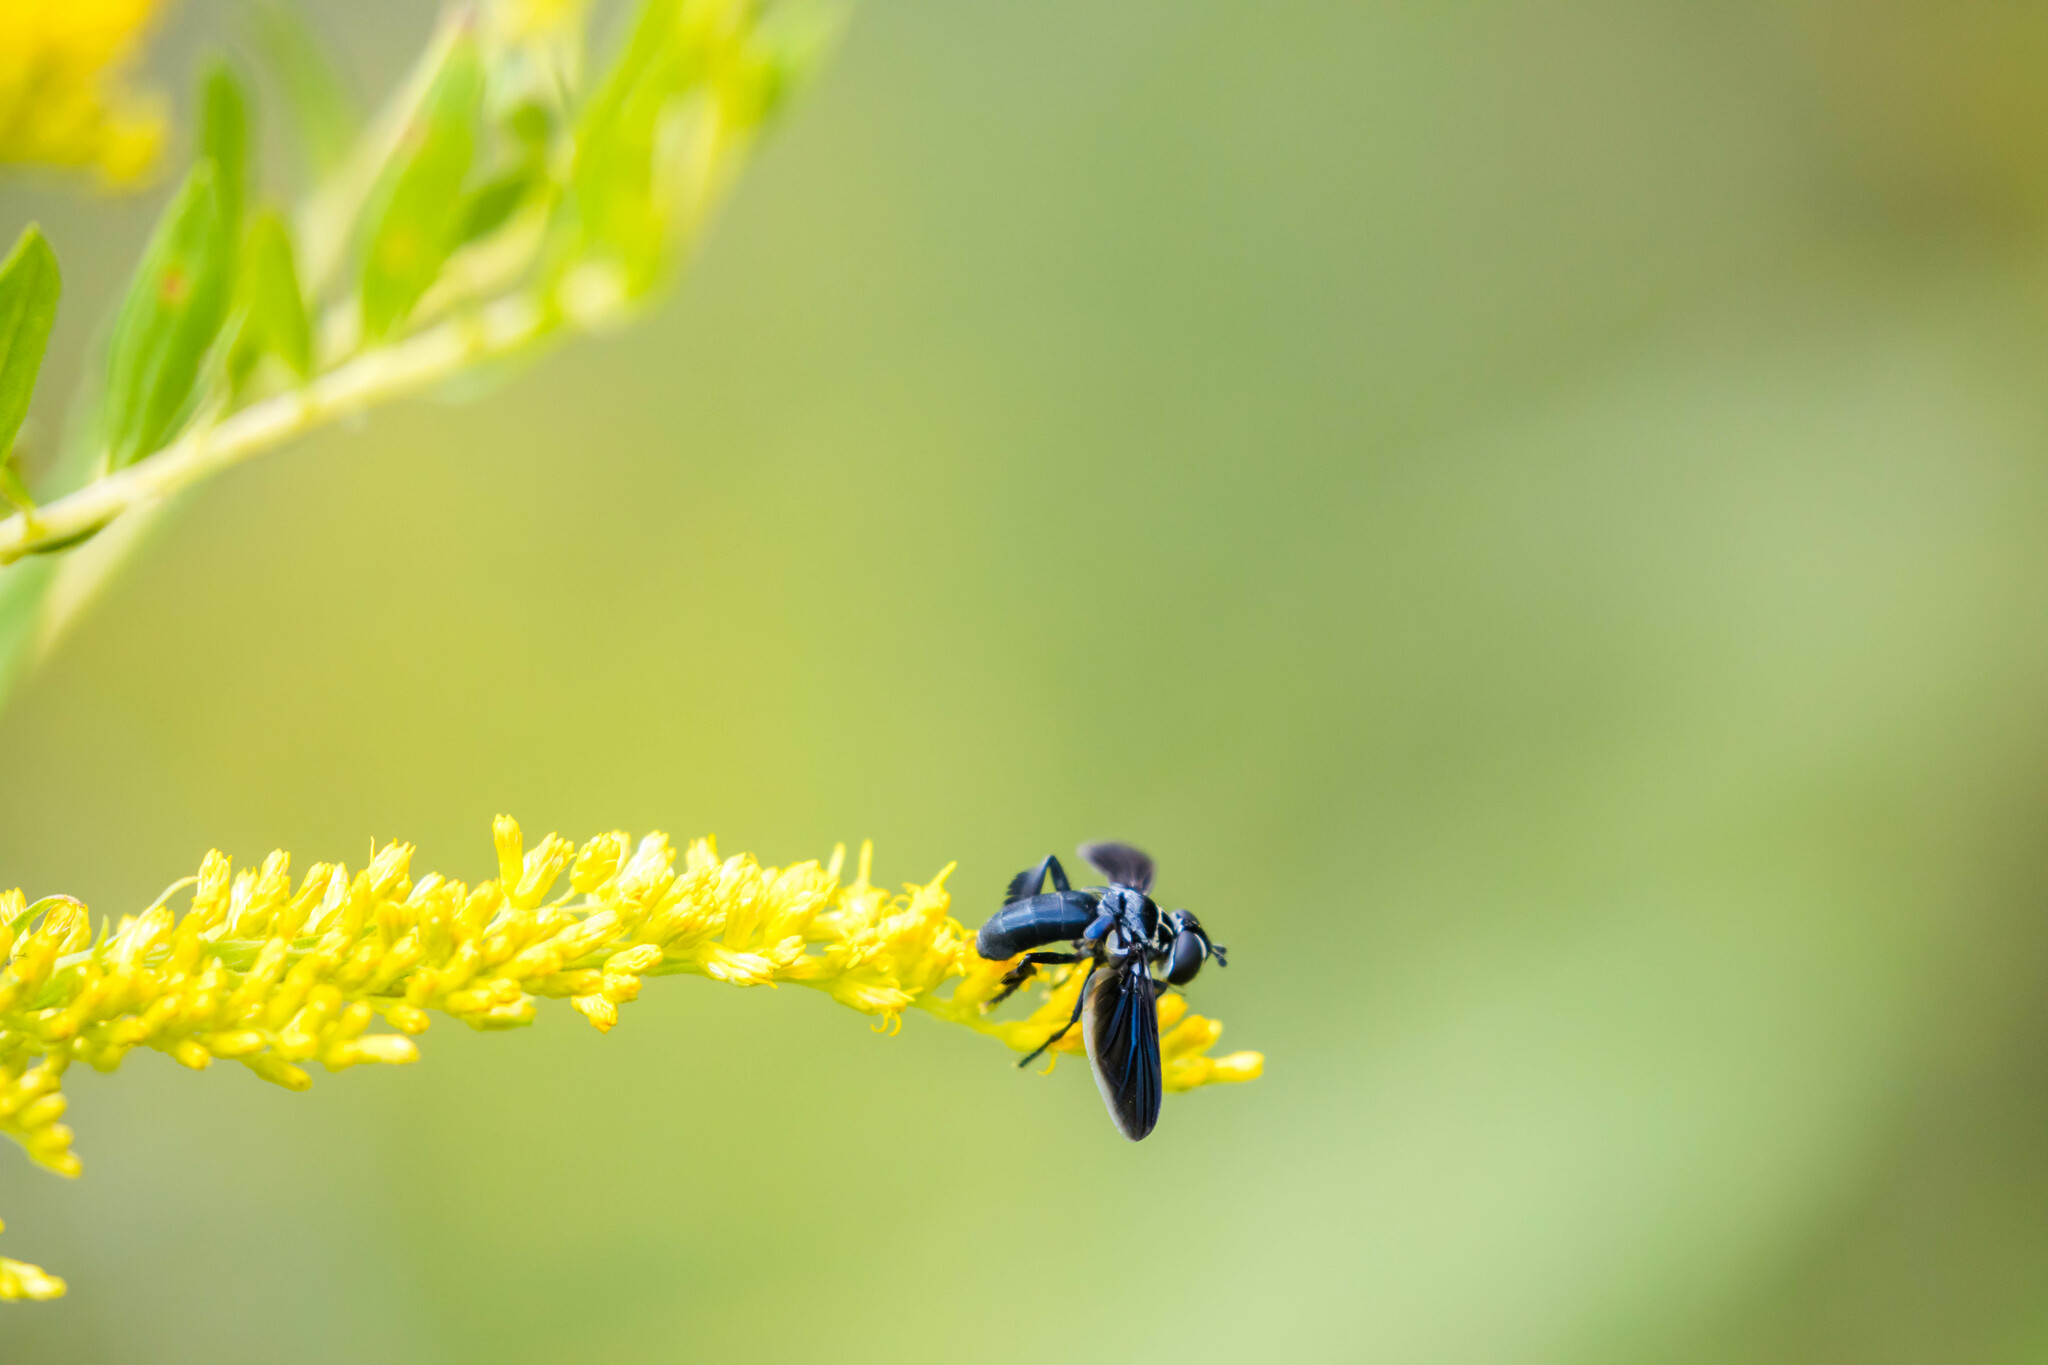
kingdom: Animalia
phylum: Arthropoda
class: Insecta
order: Diptera
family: Tachinidae
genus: Trichopoda
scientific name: Trichopoda lanipes
